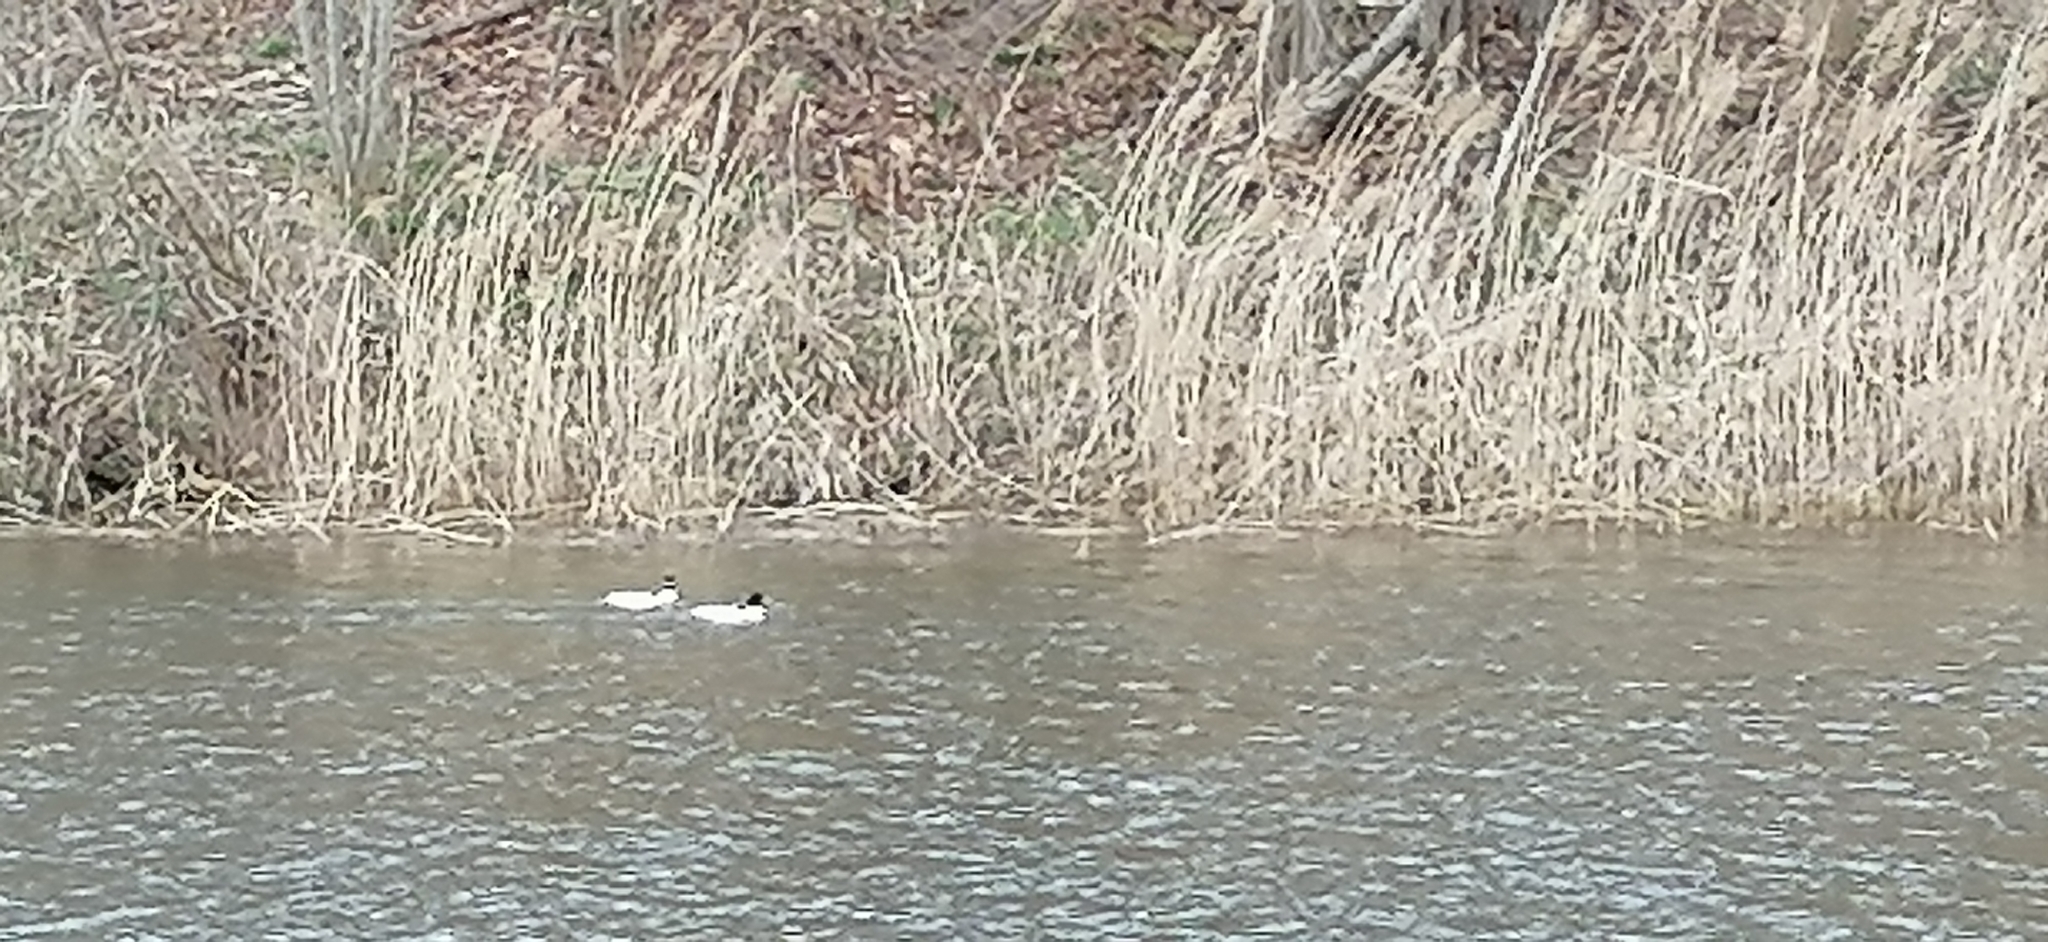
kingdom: Animalia
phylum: Chordata
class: Aves
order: Anseriformes
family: Anatidae
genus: Mergus
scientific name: Mergus merganser
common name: Common merganser
